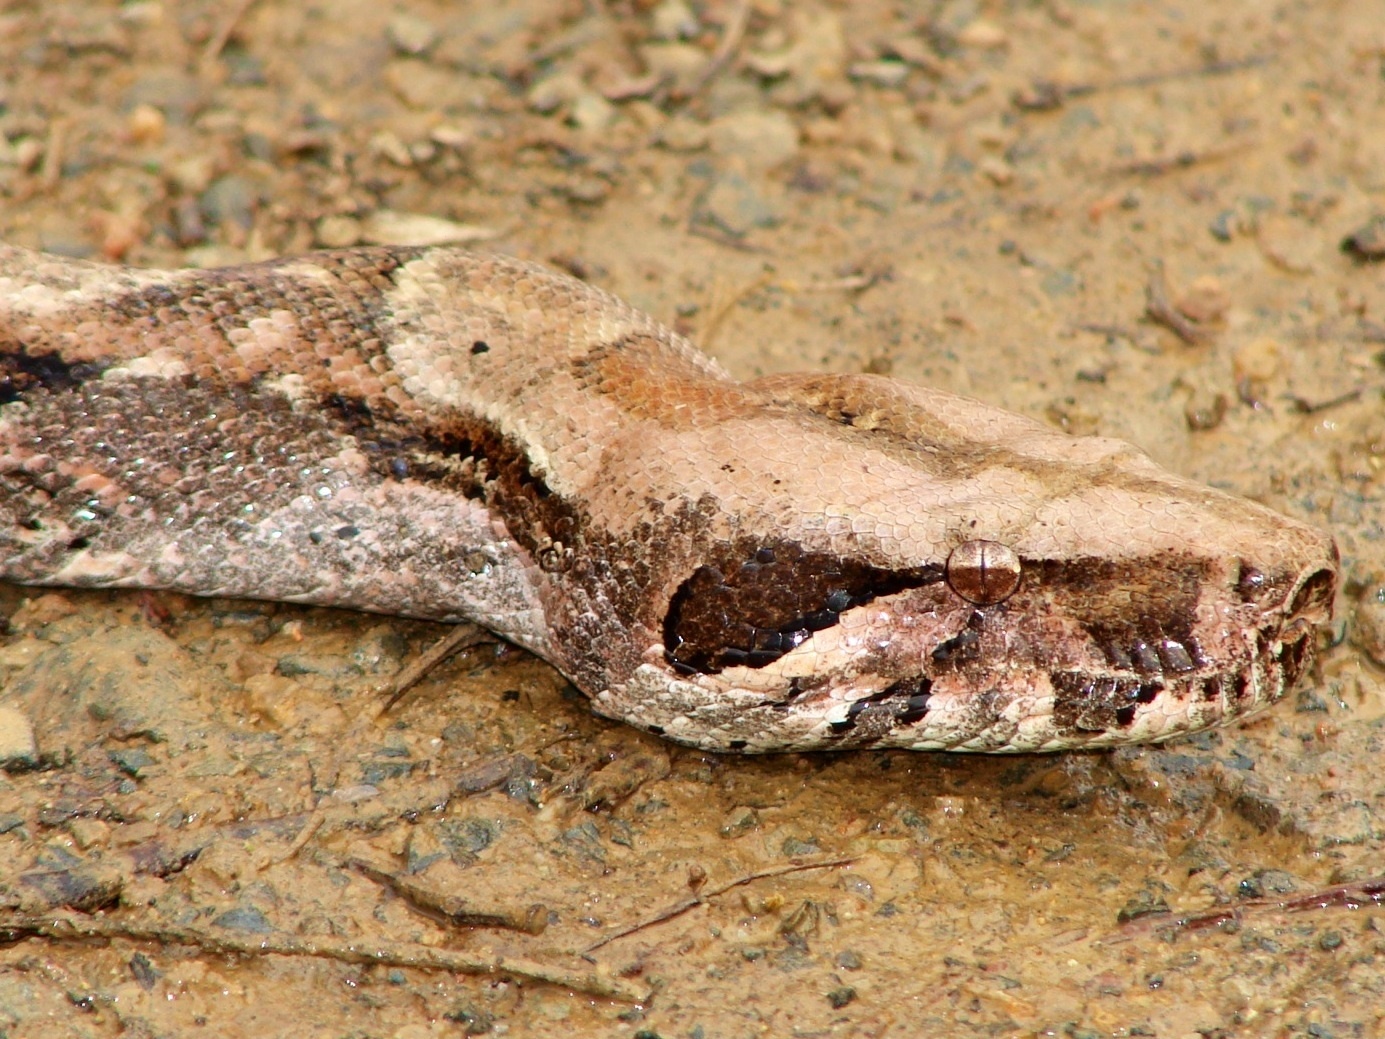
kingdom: Animalia
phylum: Chordata
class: Squamata
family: Boidae
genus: Boa
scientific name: Boa
